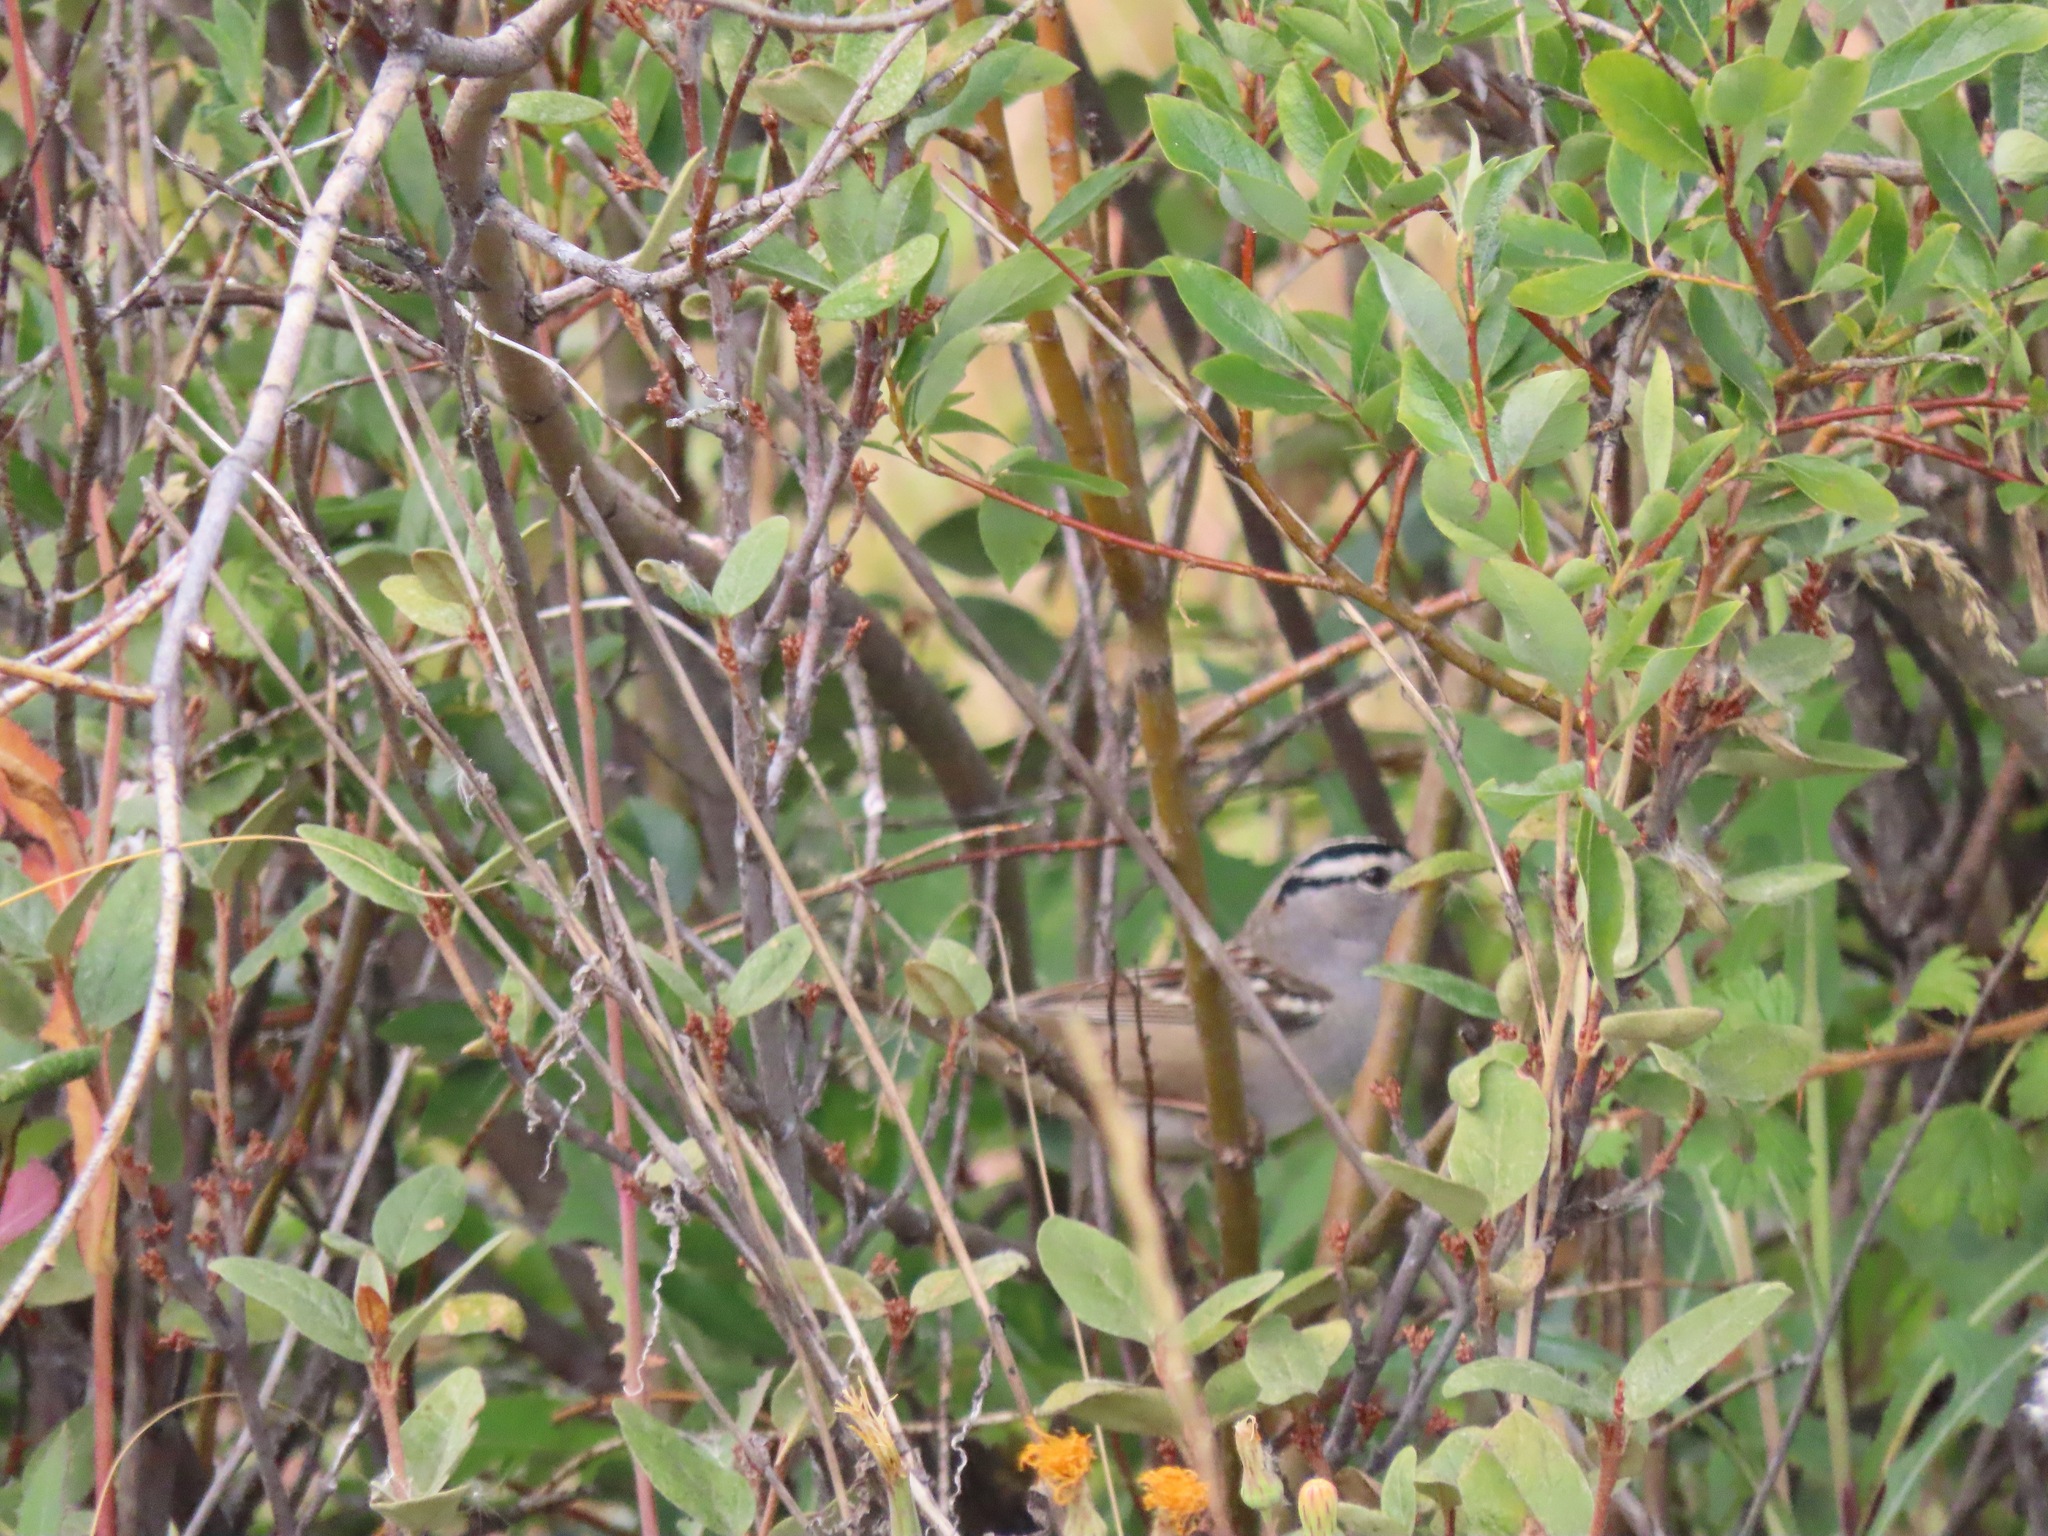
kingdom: Animalia
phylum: Chordata
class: Aves
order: Passeriformes
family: Passerellidae
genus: Zonotrichia
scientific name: Zonotrichia leucophrys
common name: White-crowned sparrow
